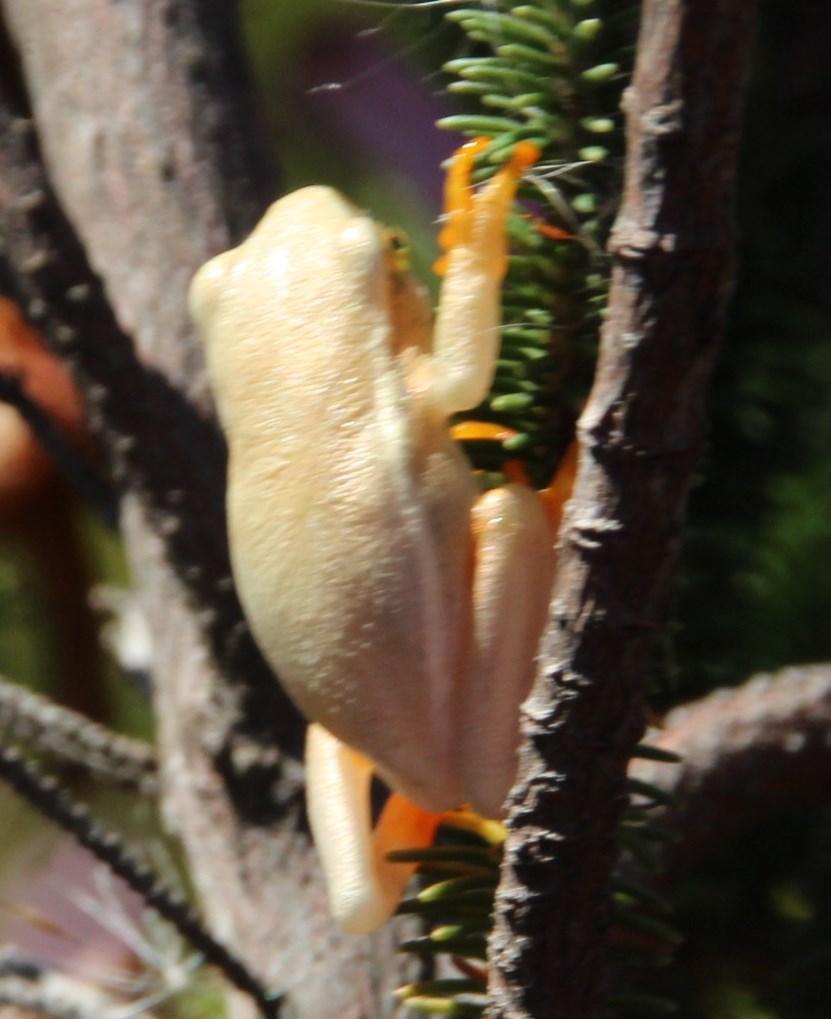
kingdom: Animalia
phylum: Chordata
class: Amphibia
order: Anura
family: Hyperoliidae
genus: Hyperolius
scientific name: Hyperolius horstockii
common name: Arum lily frog
